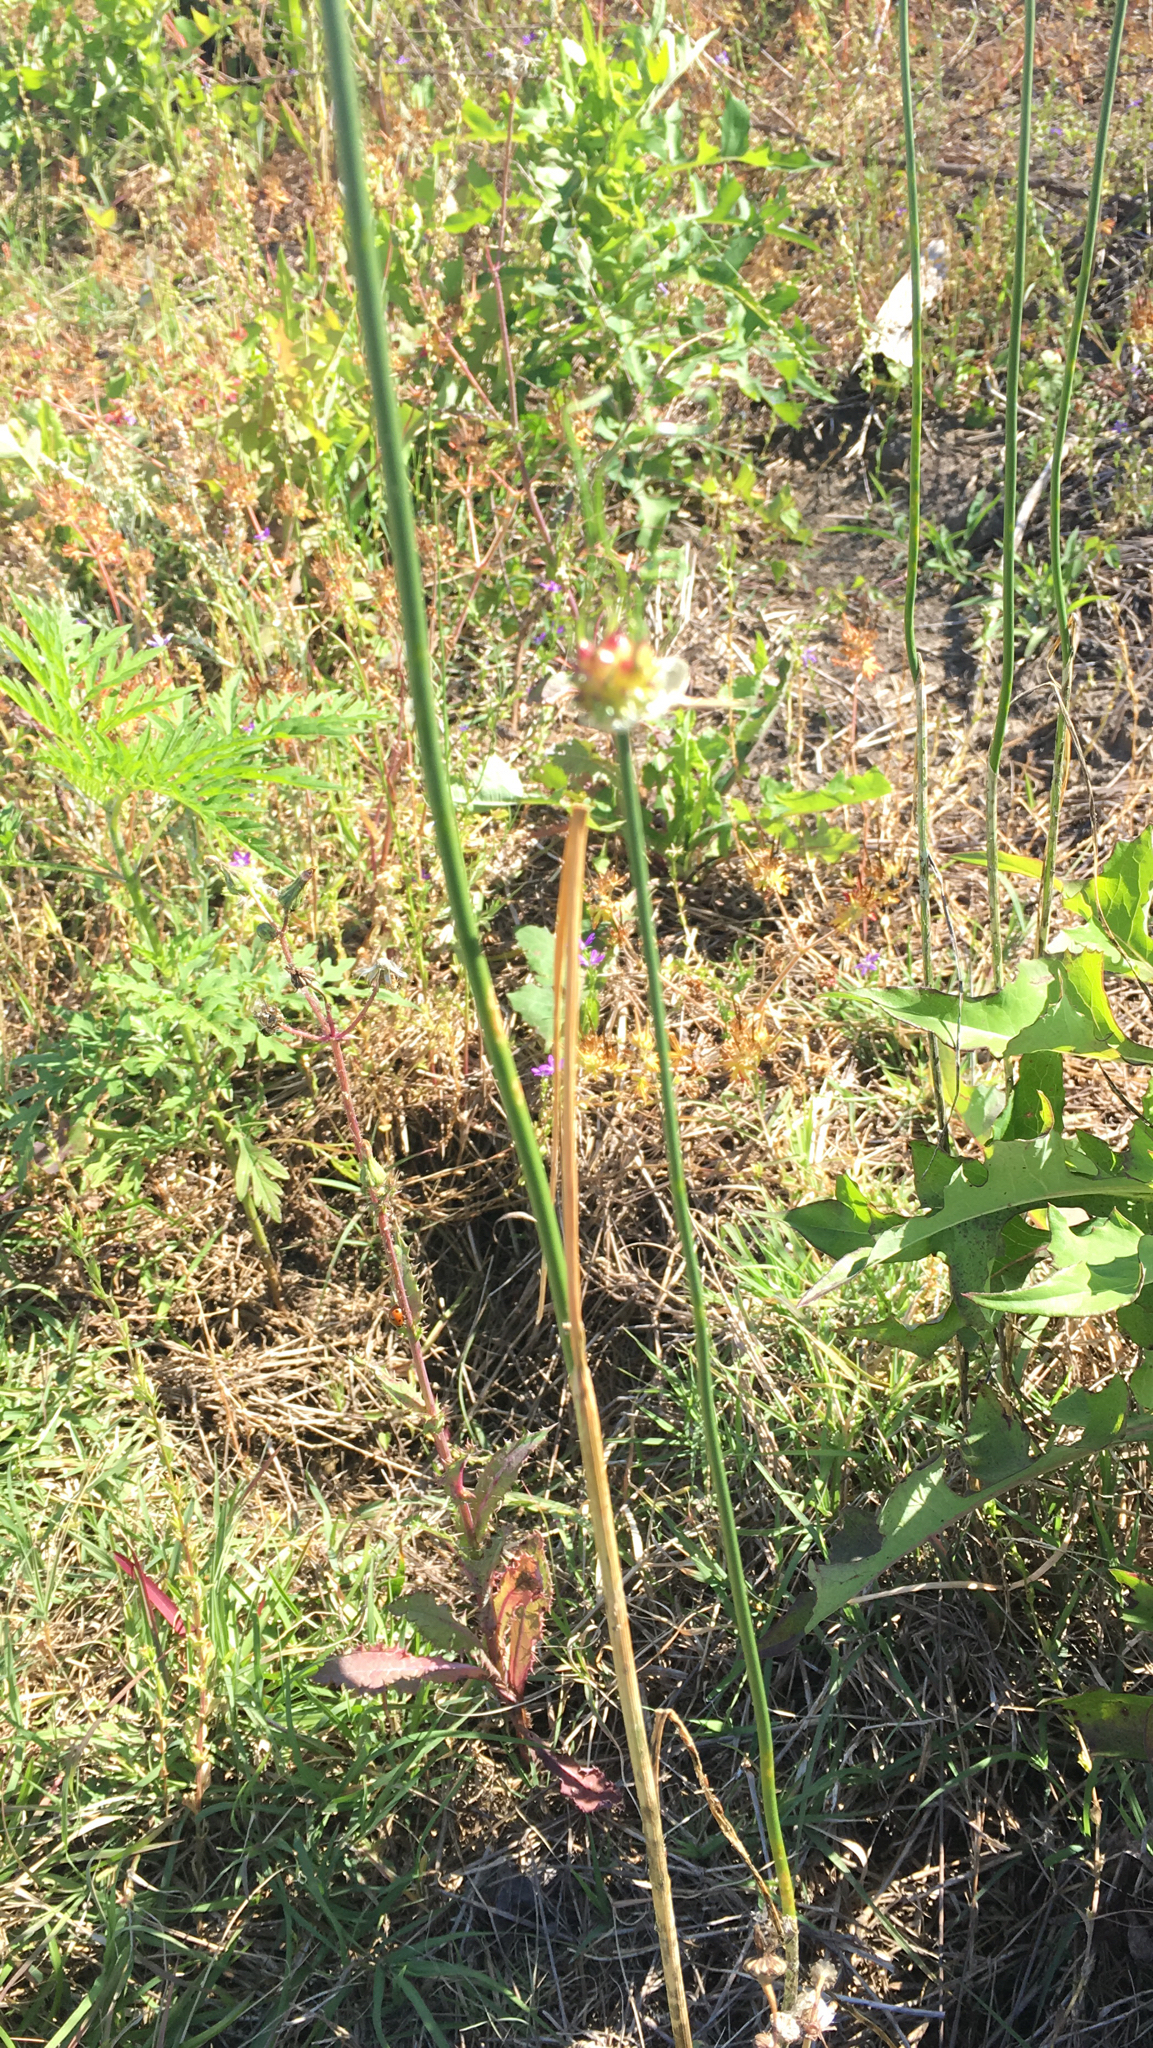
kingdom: Plantae
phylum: Tracheophyta
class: Liliopsida
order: Asparagales
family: Amaryllidaceae
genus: Allium
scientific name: Allium vineale
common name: Crow garlic
